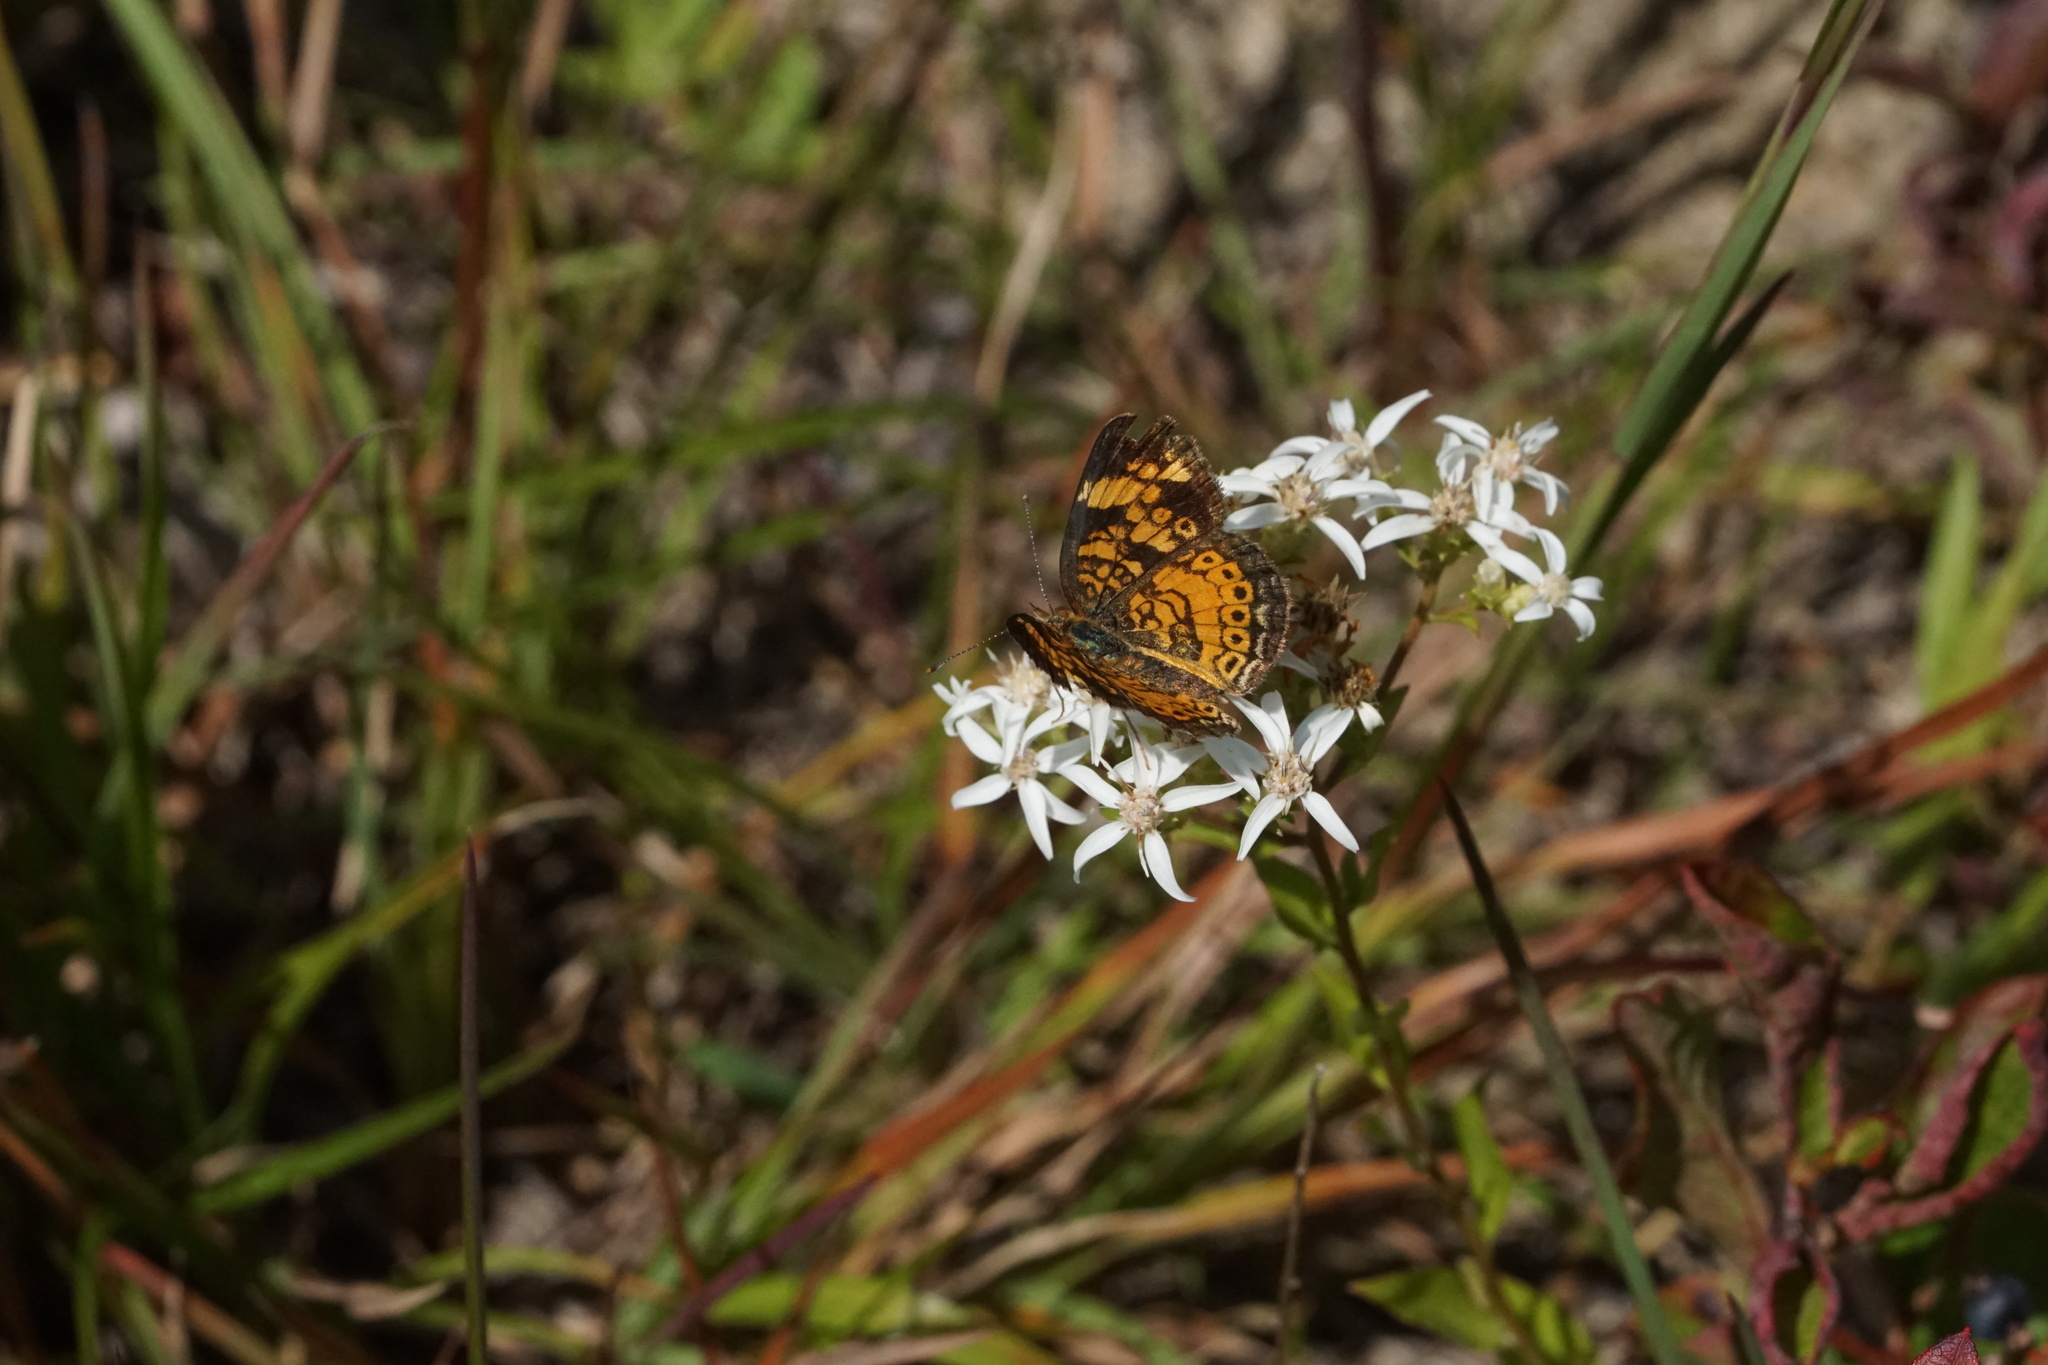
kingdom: Animalia
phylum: Arthropoda
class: Insecta
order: Lepidoptera
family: Nymphalidae
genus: Phyciodes
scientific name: Phyciodes tharos
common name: Pearl crescent
